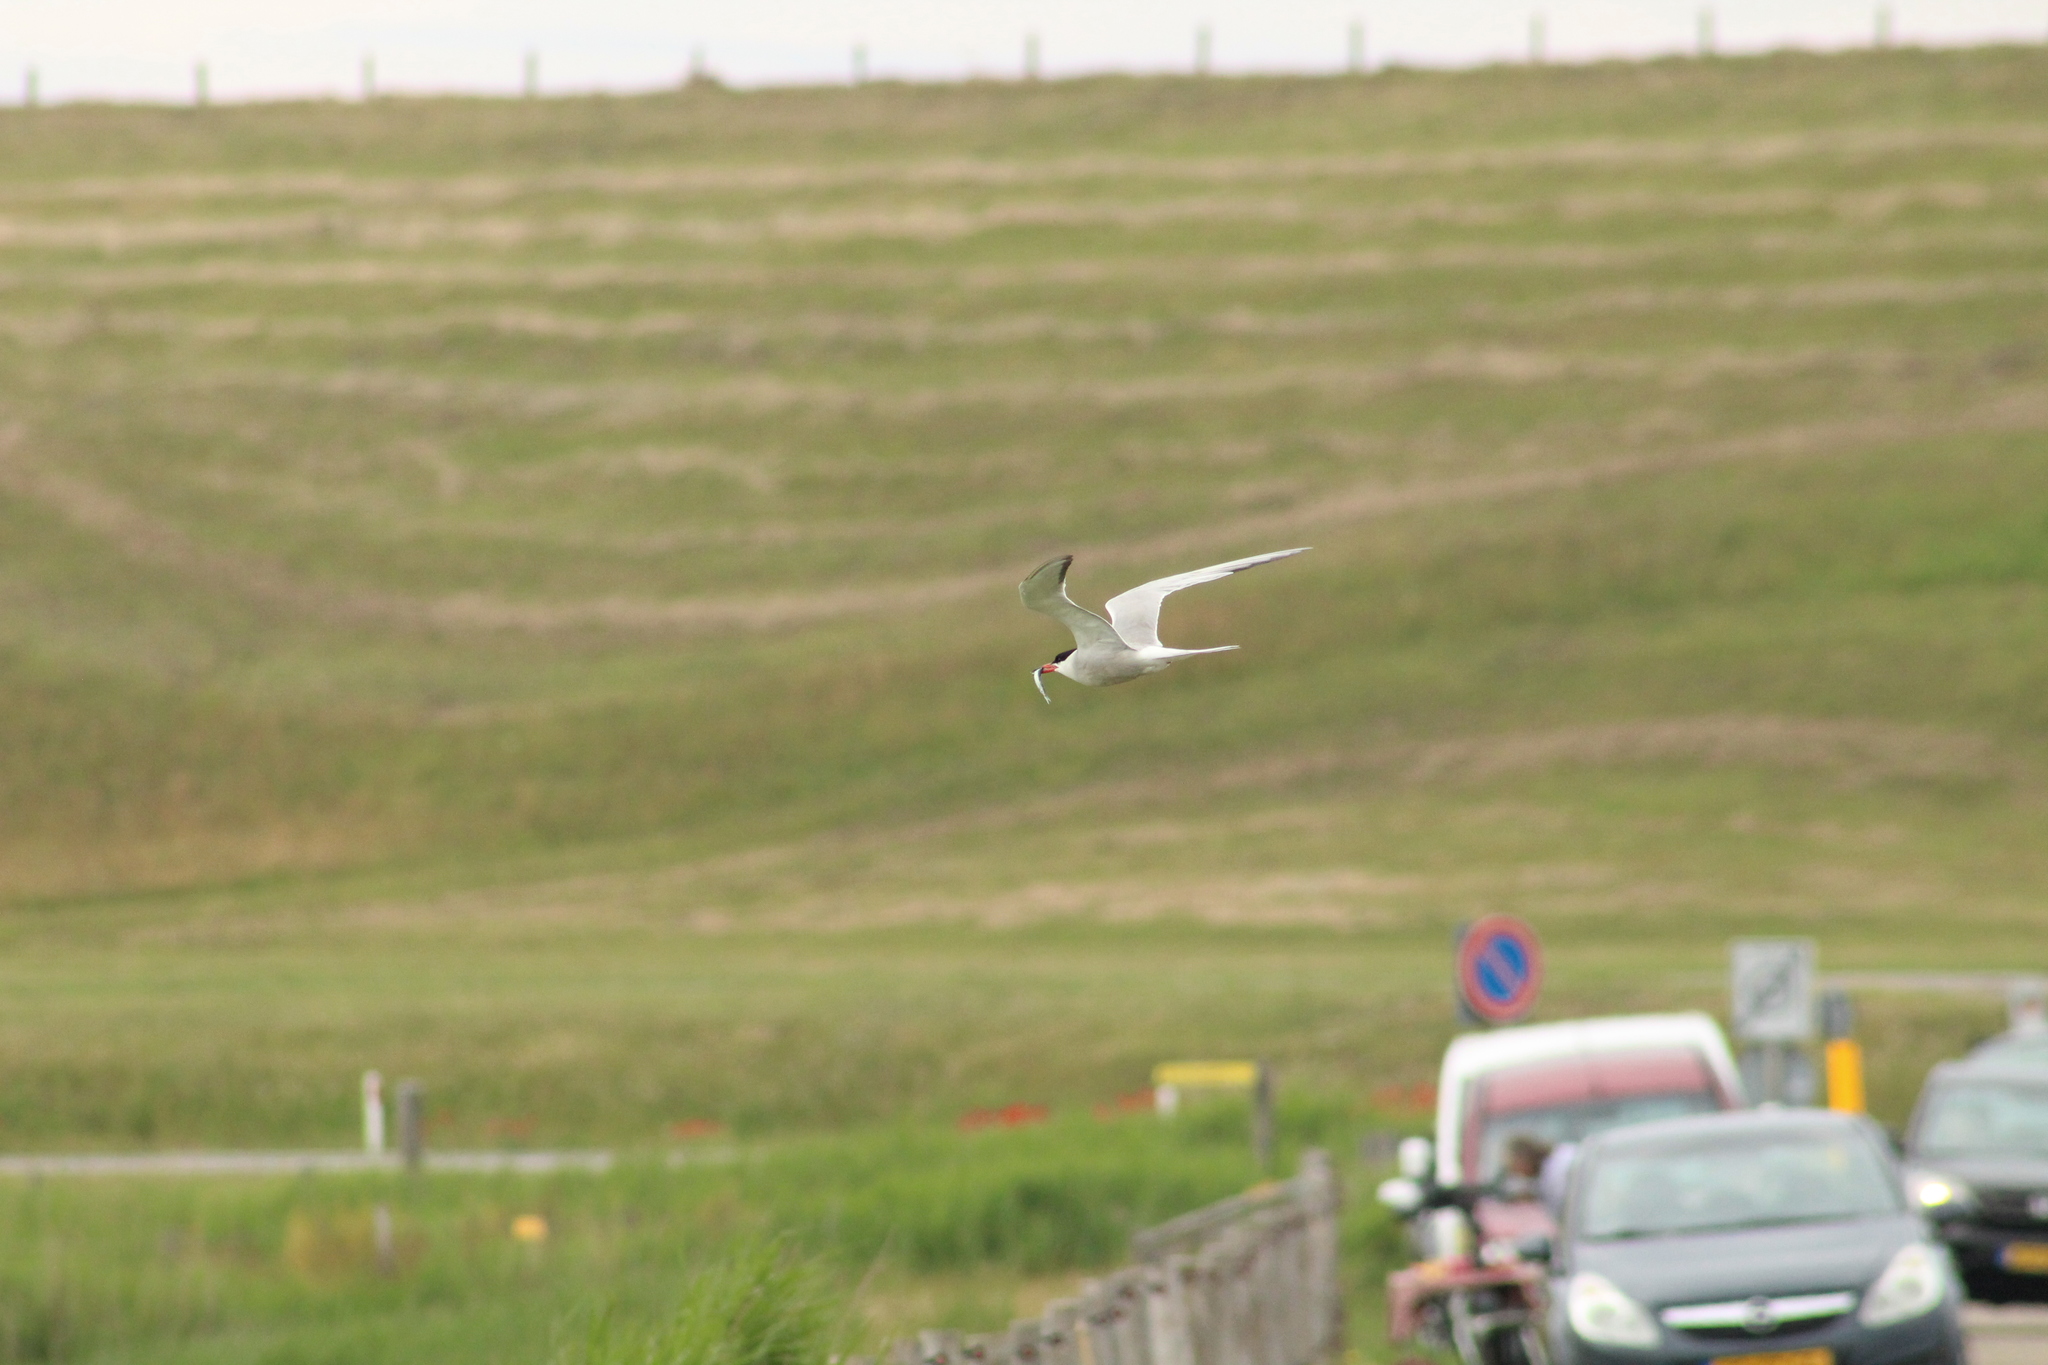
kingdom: Animalia
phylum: Chordata
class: Aves
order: Charadriiformes
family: Laridae
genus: Sterna
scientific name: Sterna hirundo
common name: Common tern
